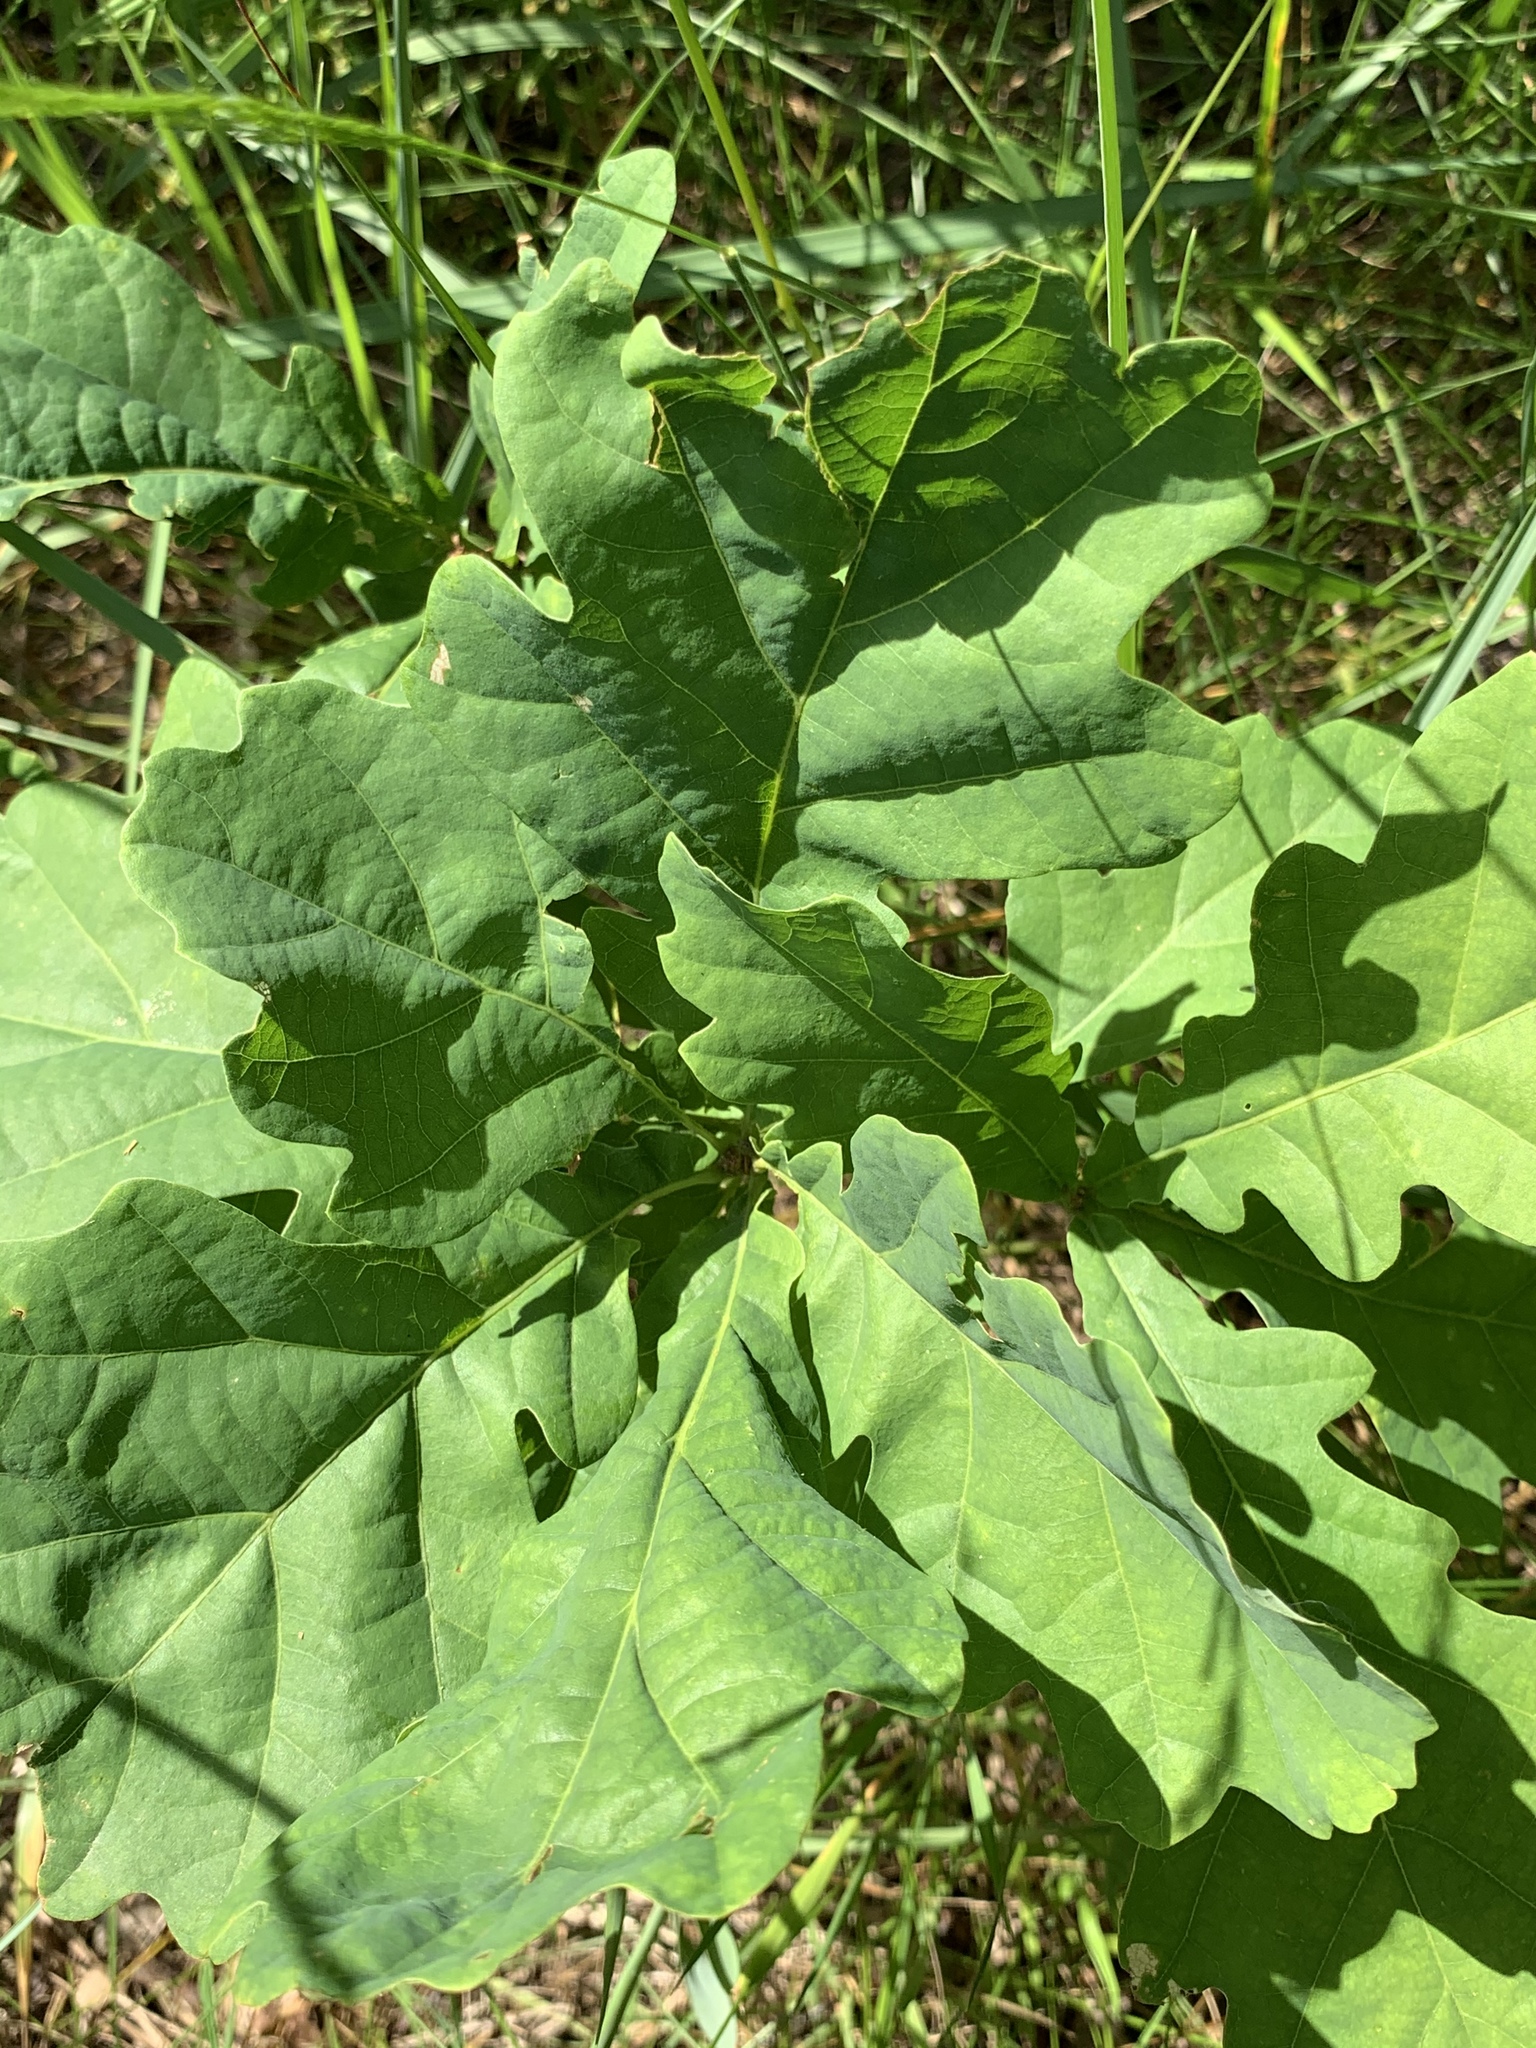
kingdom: Plantae
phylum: Tracheophyta
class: Magnoliopsida
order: Fagales
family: Fagaceae
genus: Quercus
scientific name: Quercus robur
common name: Pedunculate oak
